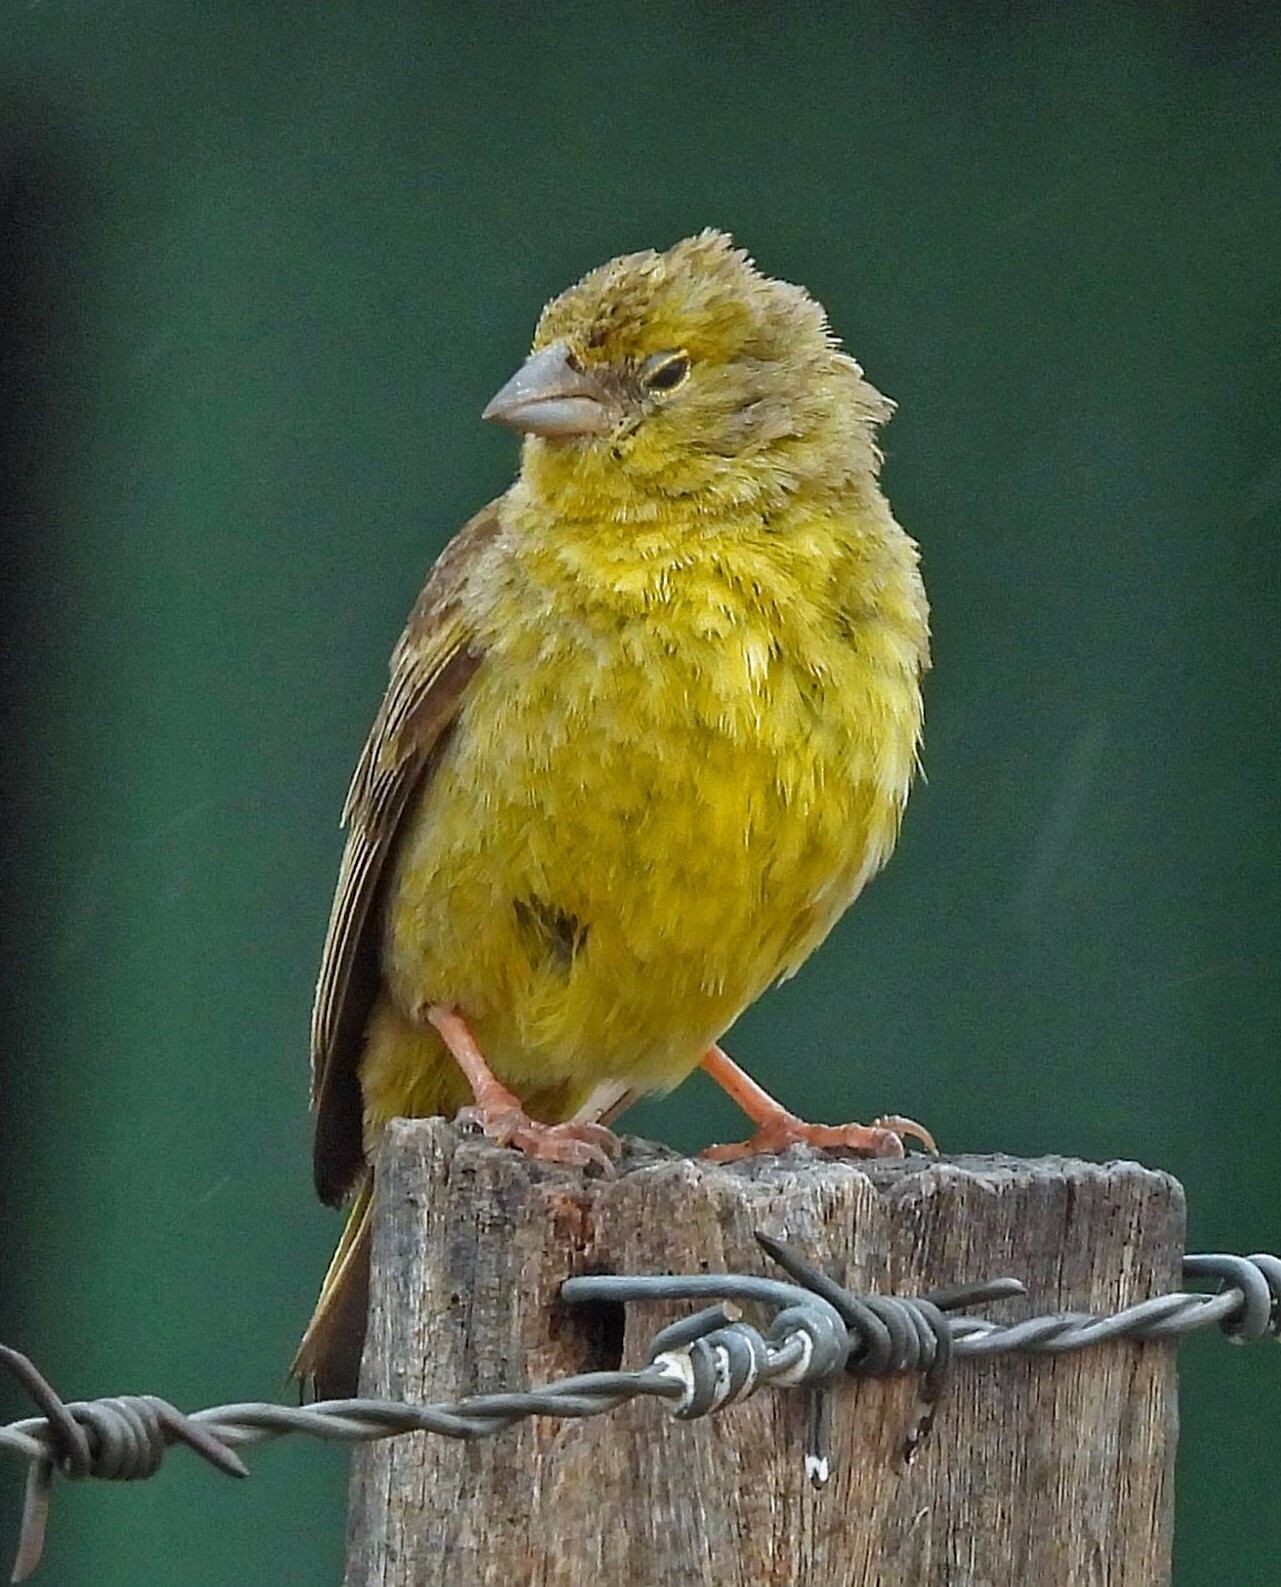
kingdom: Animalia
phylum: Chordata
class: Aves
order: Passeriformes
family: Thraupidae
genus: Sicalis
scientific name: Sicalis olivascens
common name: Greenish yellow finch
